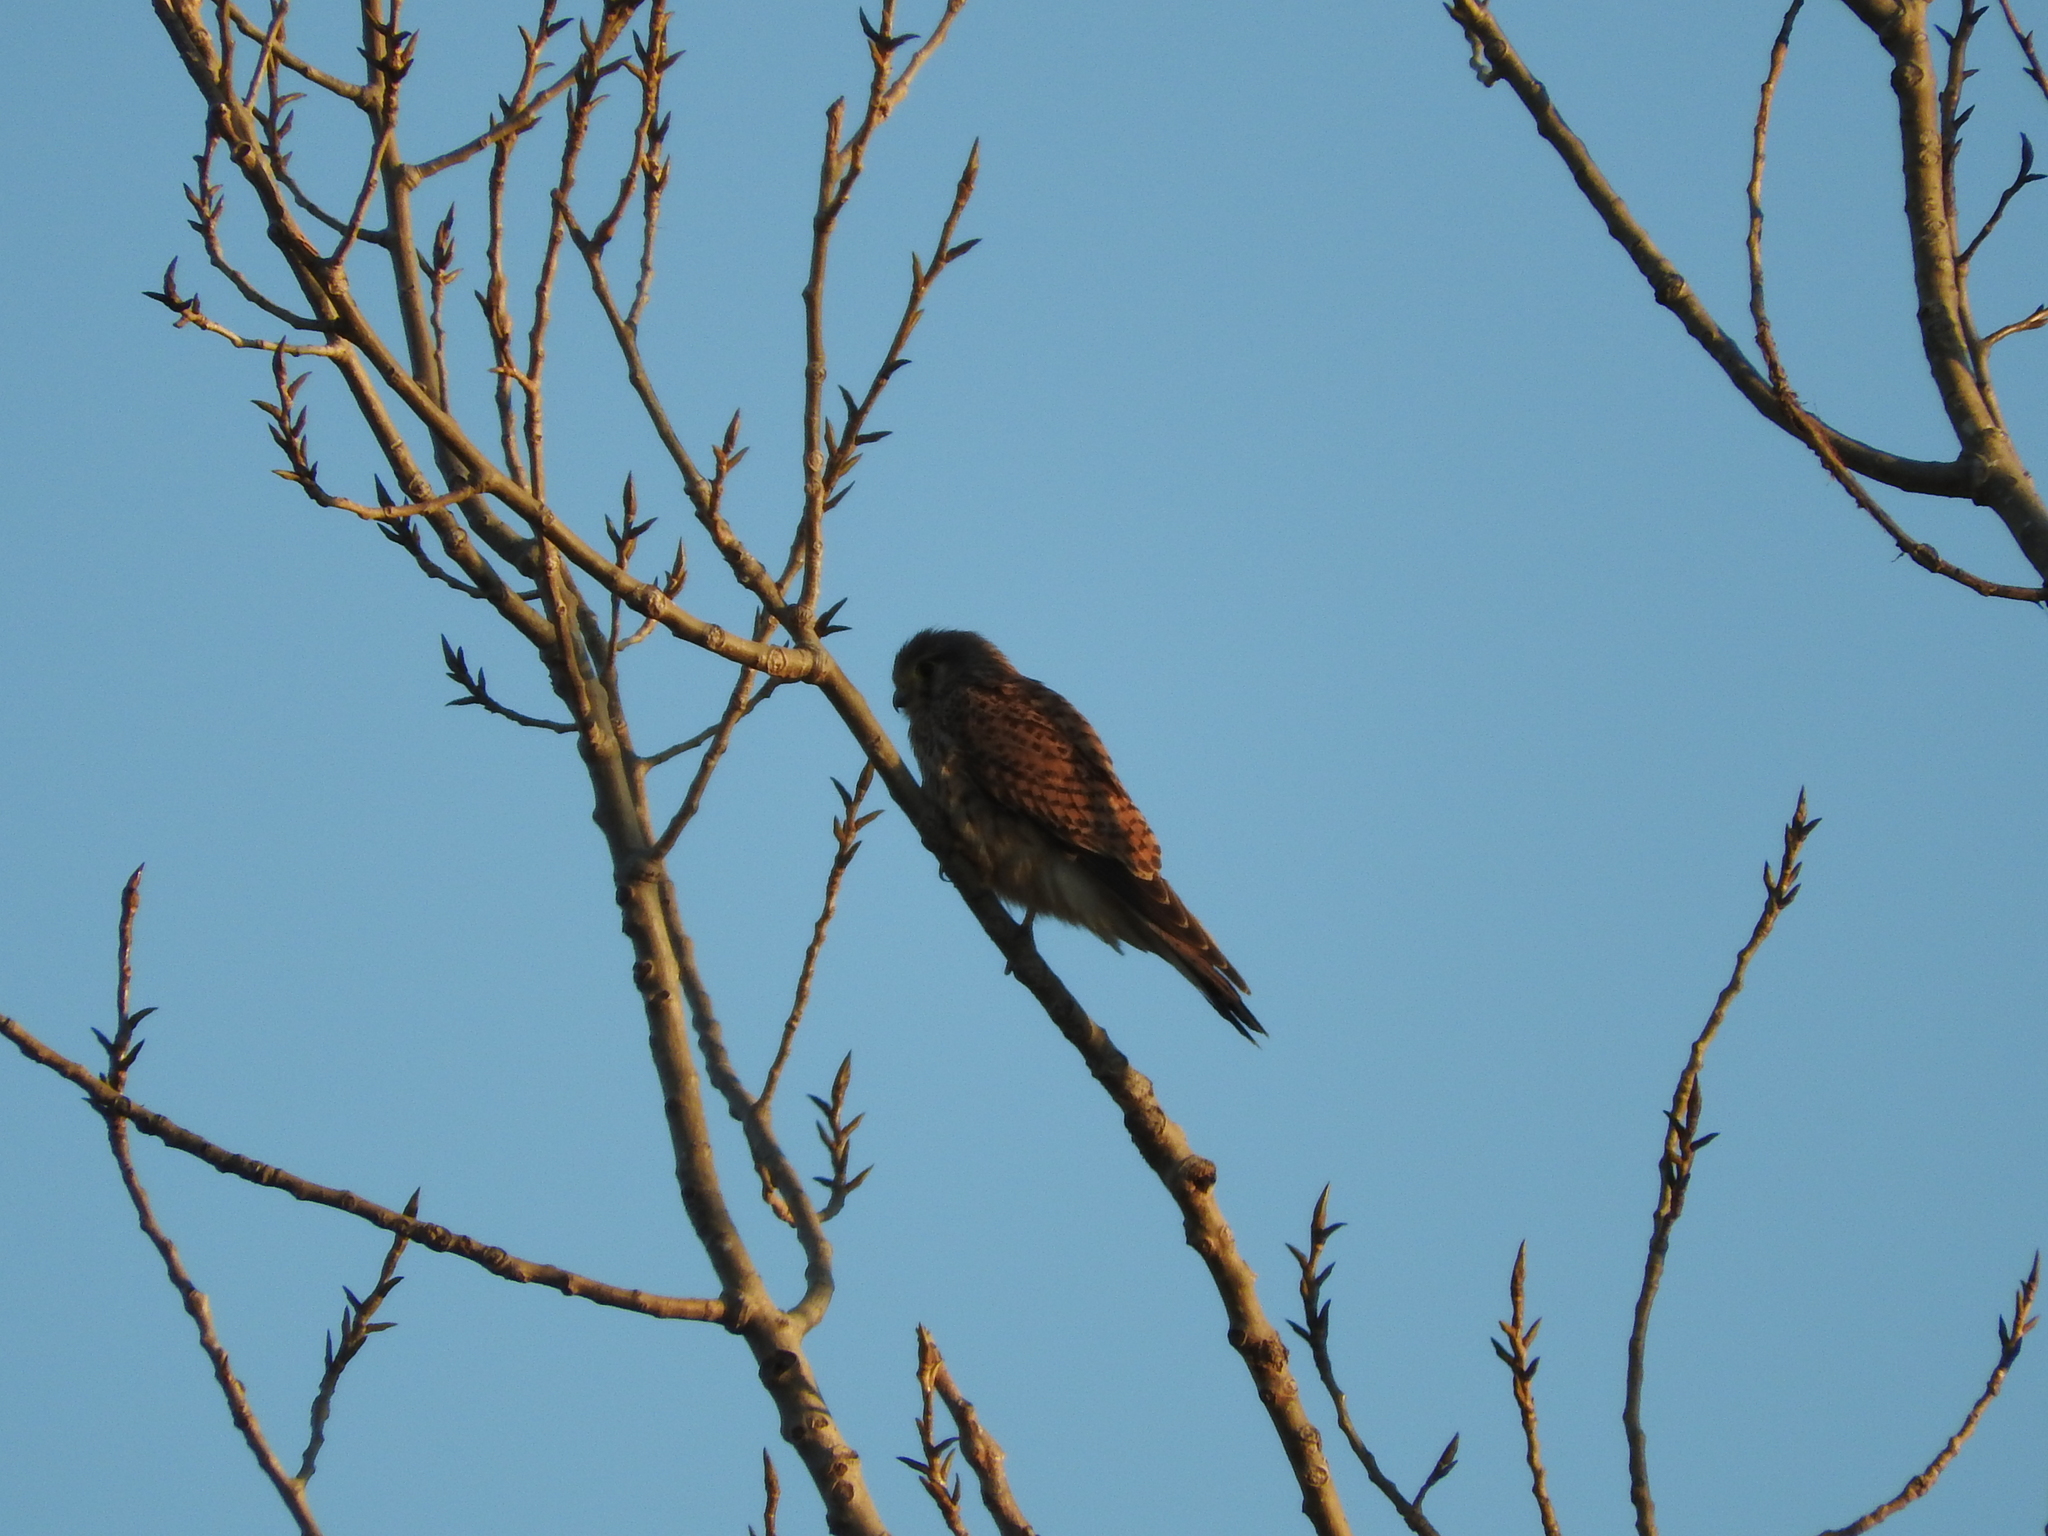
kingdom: Animalia
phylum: Chordata
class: Aves
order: Falconiformes
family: Falconidae
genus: Falco
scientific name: Falco tinnunculus
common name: Common kestrel
